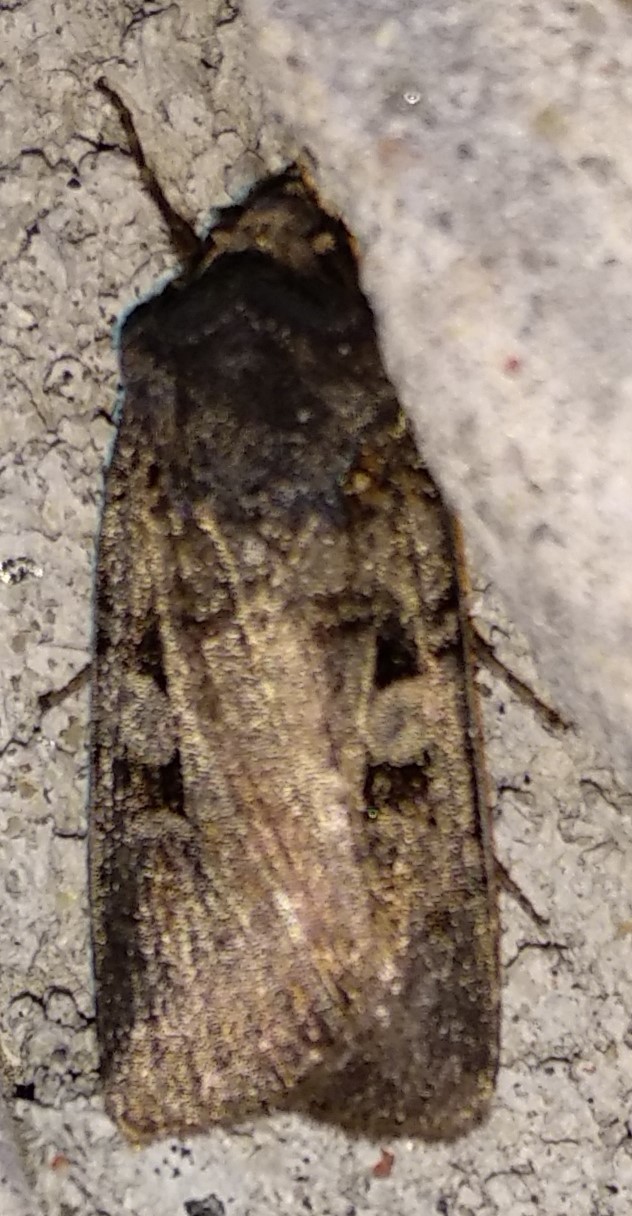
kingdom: Animalia
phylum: Arthropoda
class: Insecta
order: Lepidoptera
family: Noctuidae
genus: Euxoa
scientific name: Euxoa tessellata
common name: Striped cutworm
